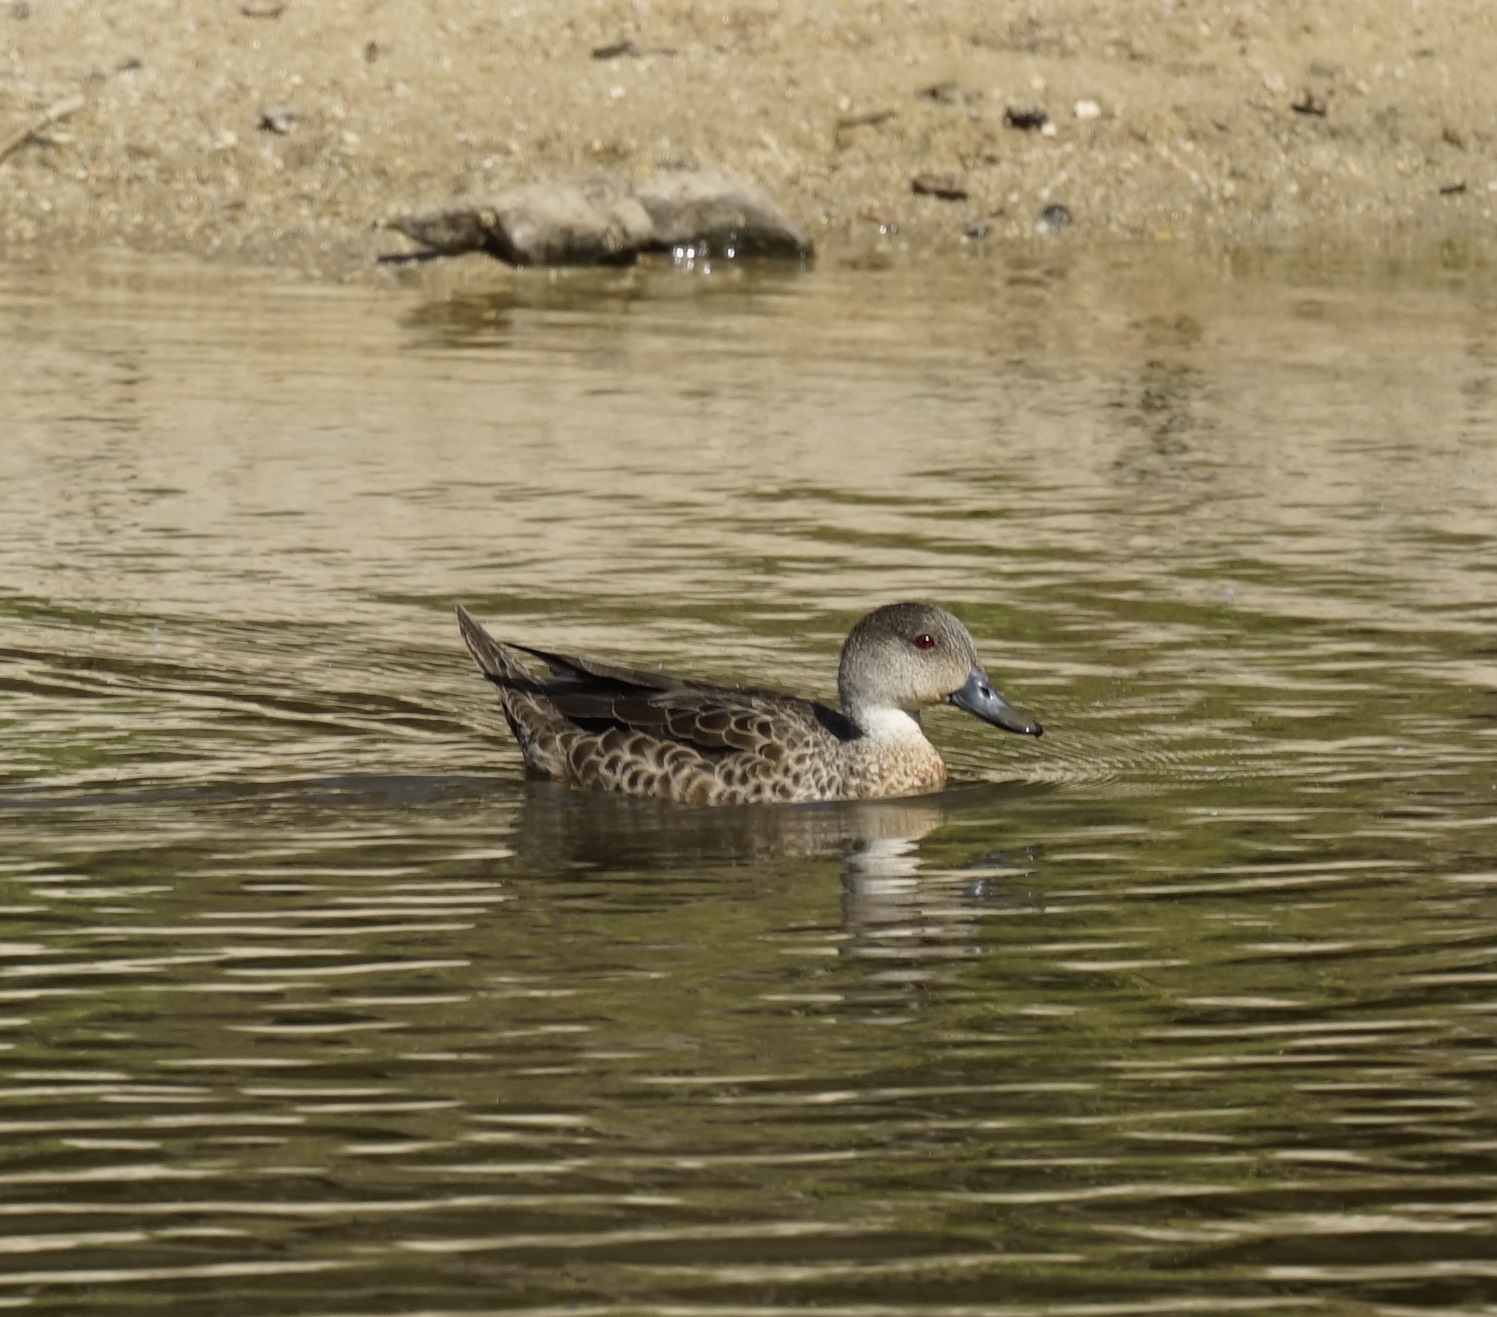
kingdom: Animalia
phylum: Chordata
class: Aves
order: Anseriformes
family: Anatidae
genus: Anas
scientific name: Anas gracilis
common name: Grey teal
